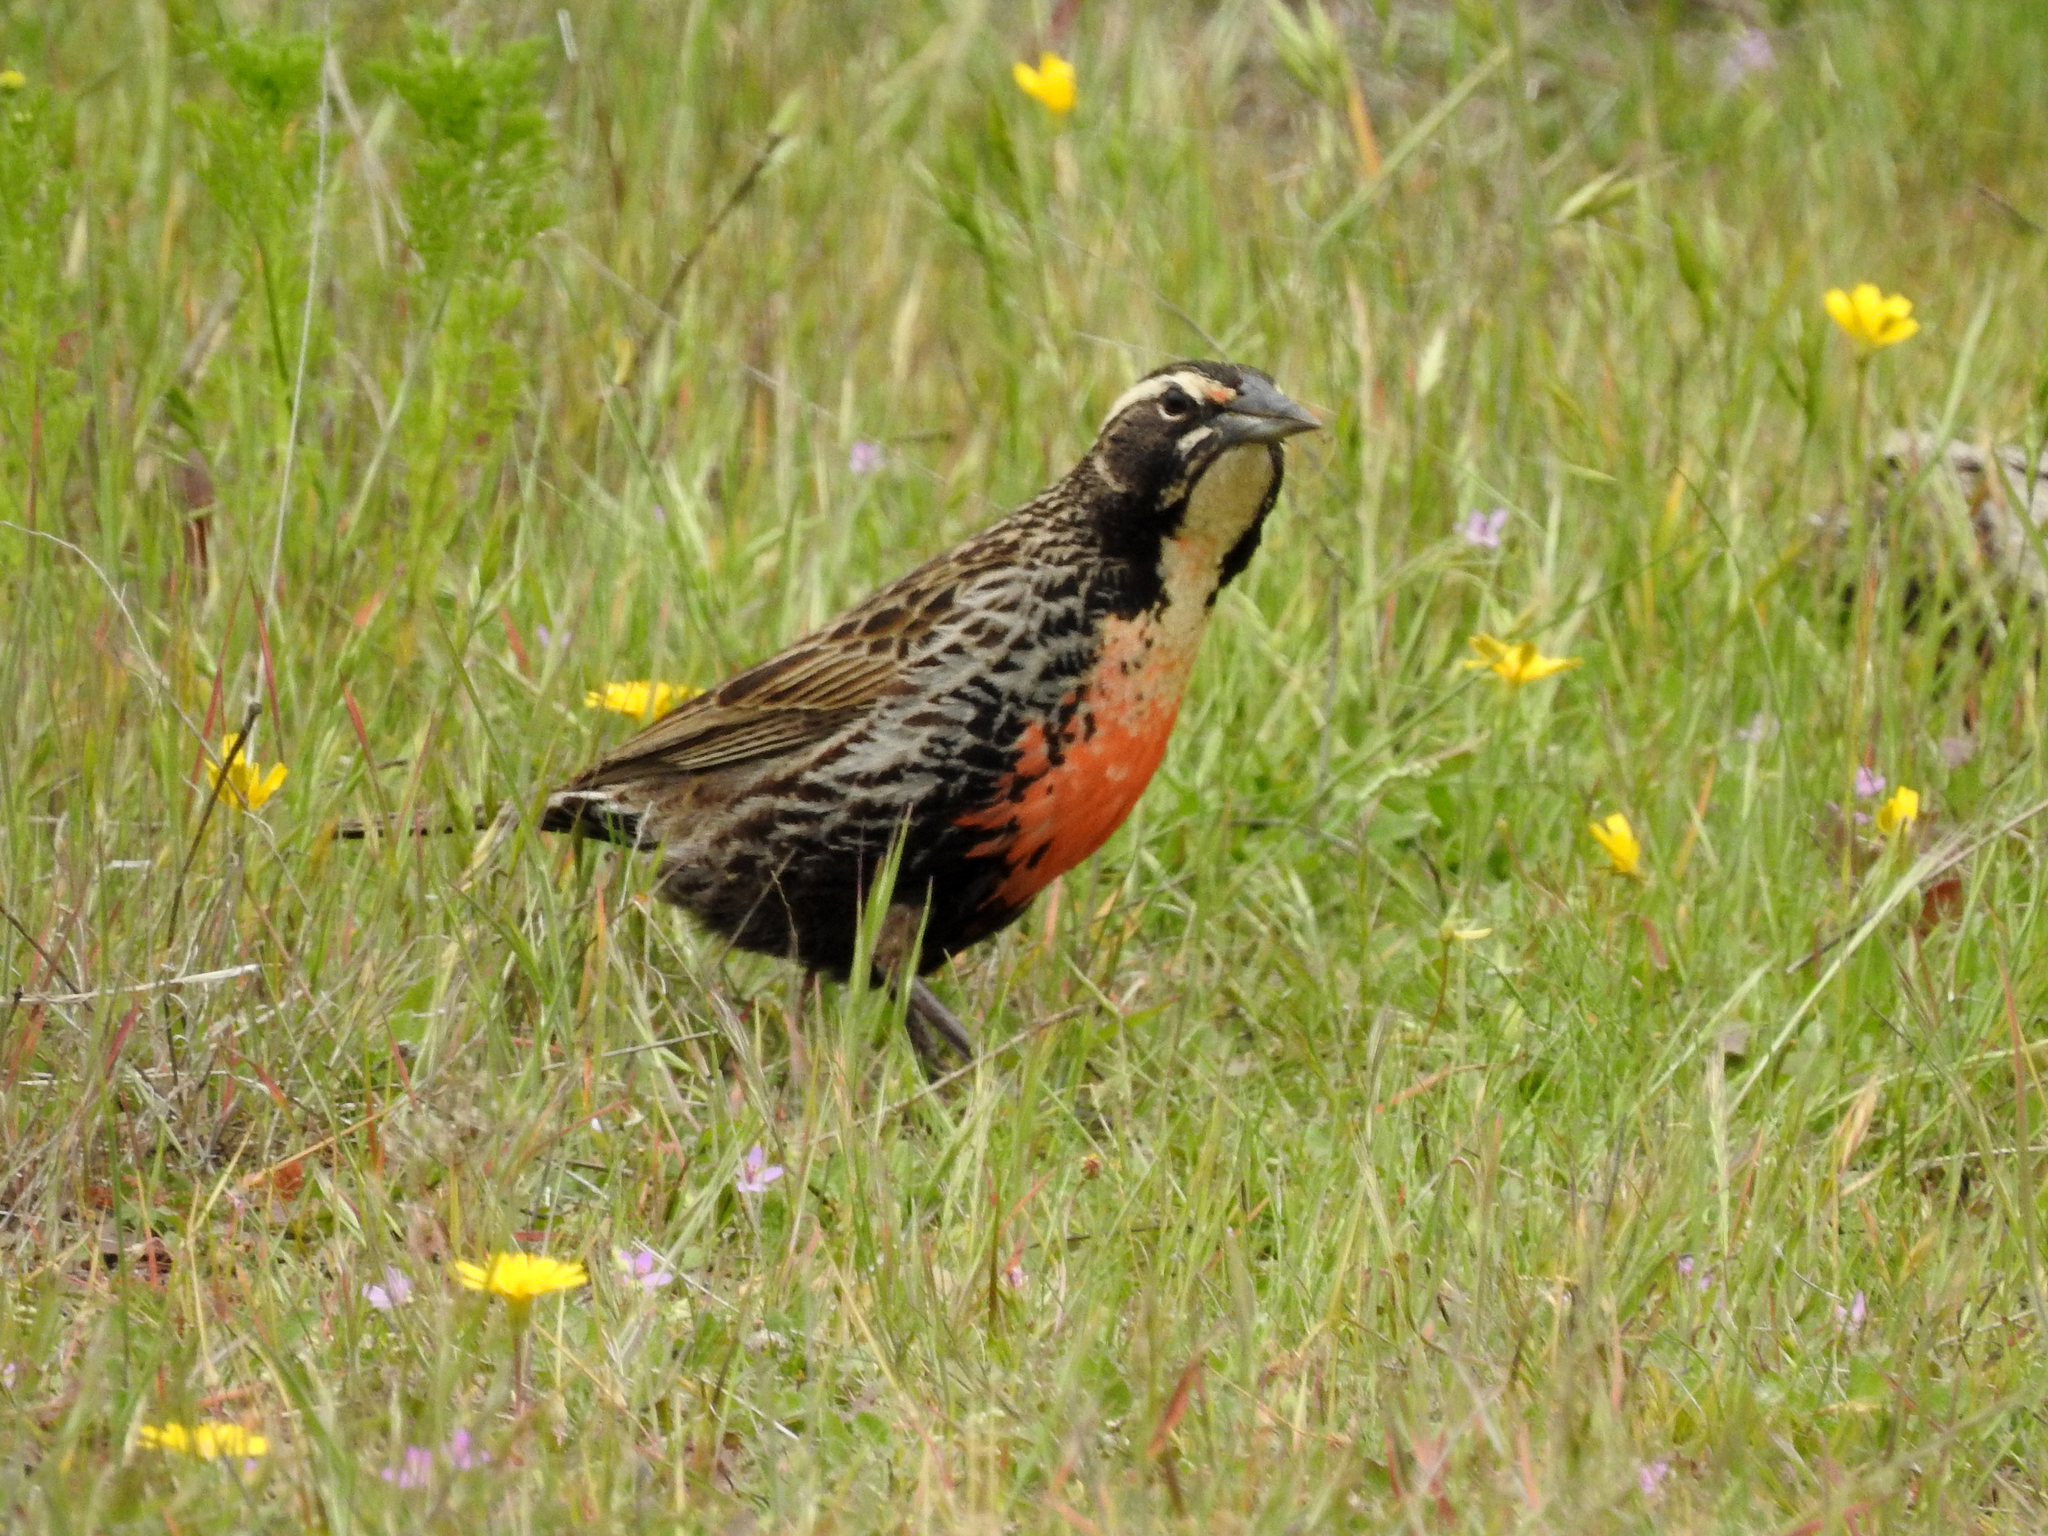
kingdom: Animalia
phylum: Chordata
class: Aves
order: Passeriformes
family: Icteridae
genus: Sturnella
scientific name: Sturnella loyca
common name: Long-tailed meadowlark
